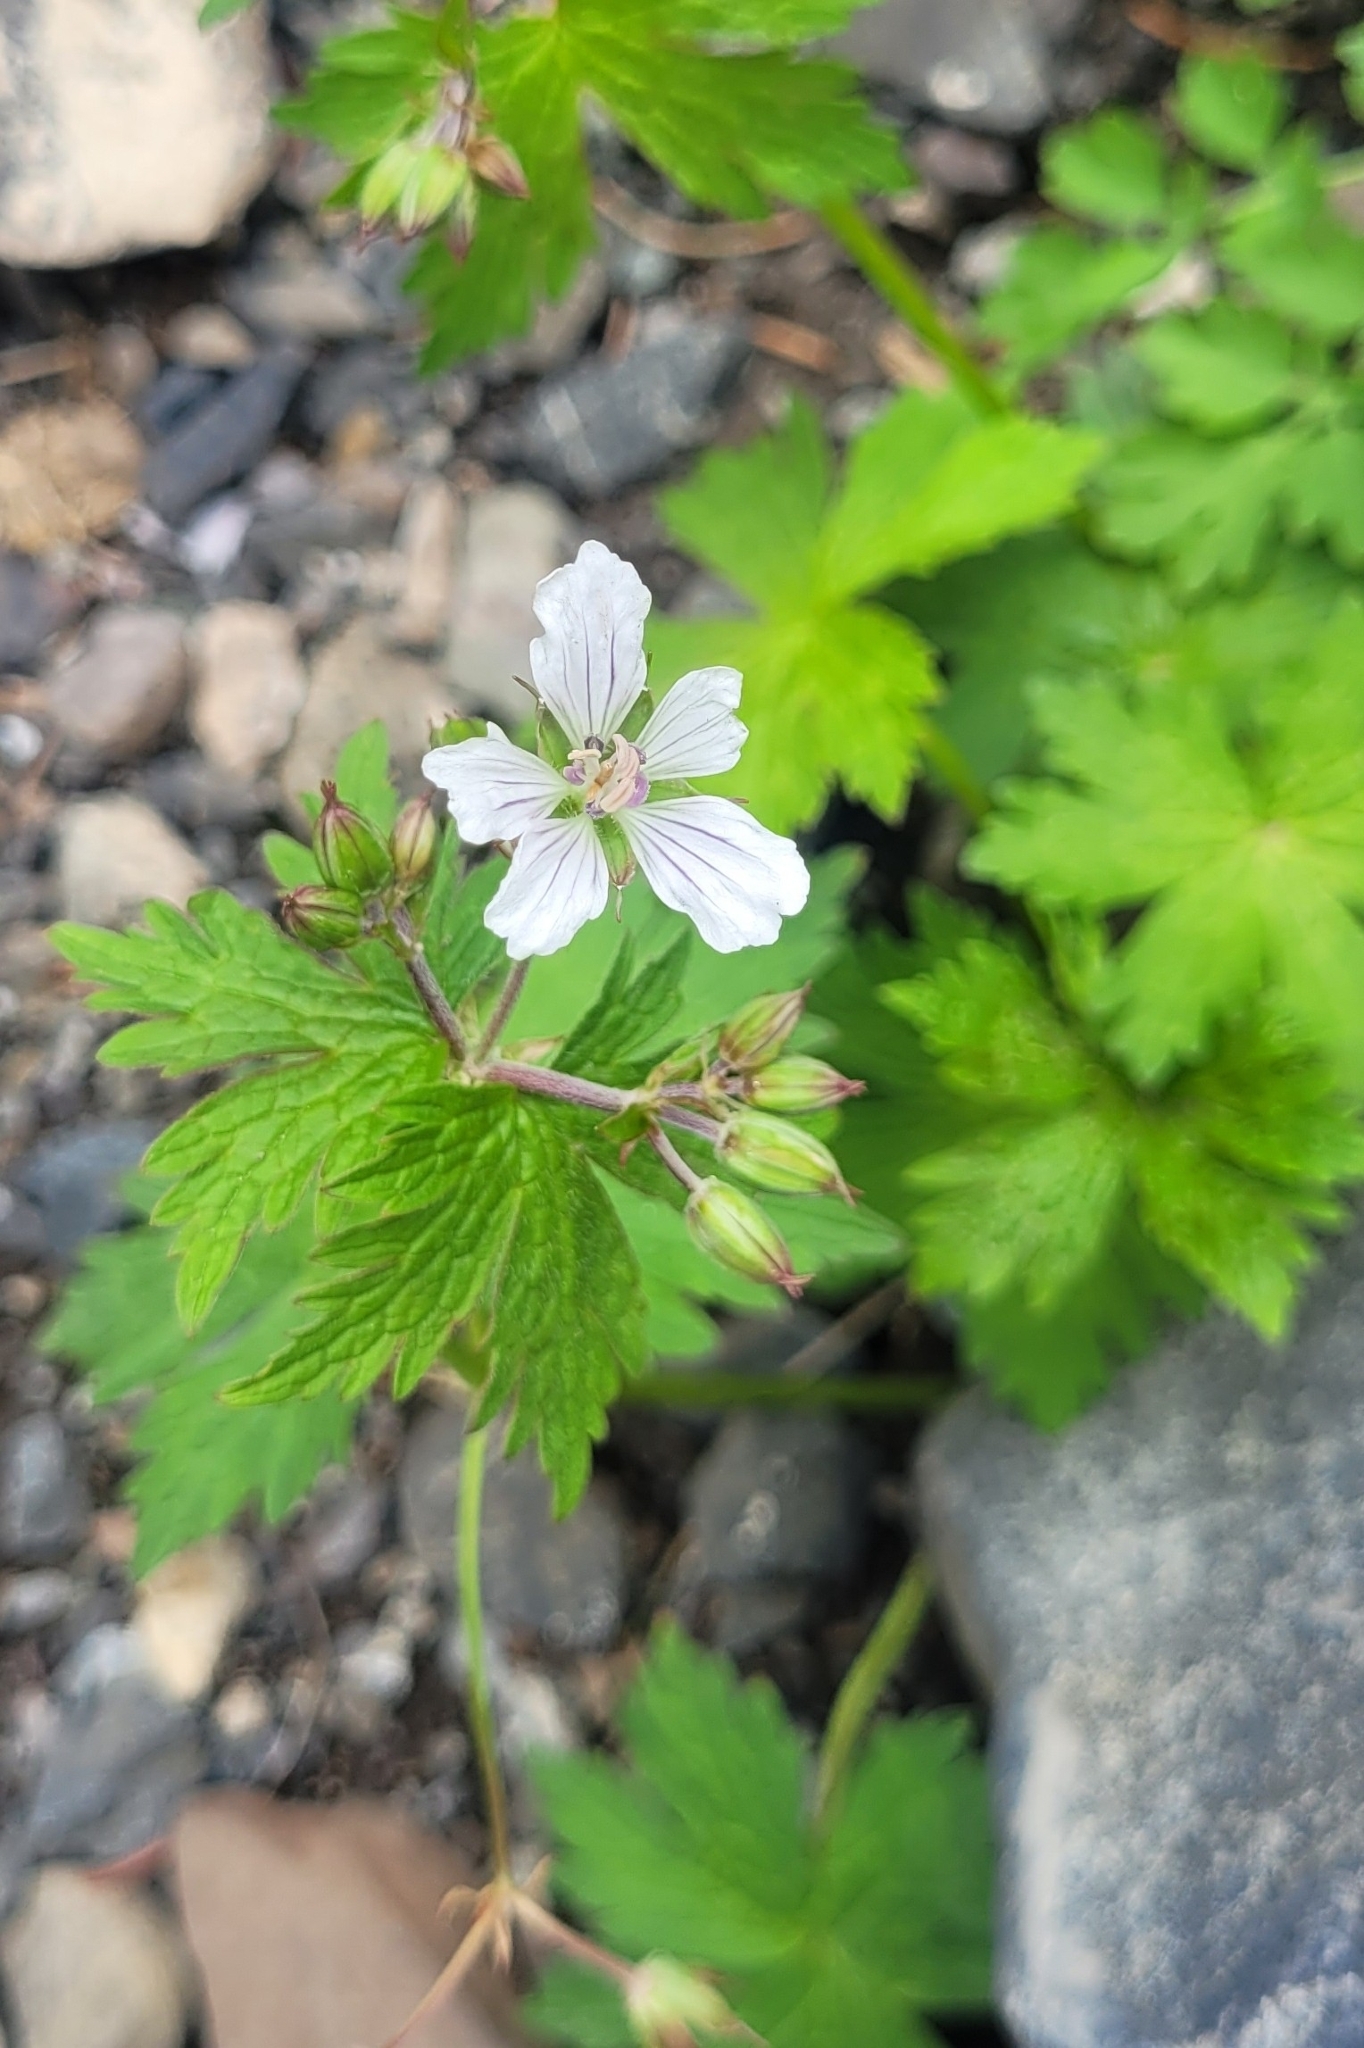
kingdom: Plantae
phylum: Tracheophyta
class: Magnoliopsida
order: Geraniales
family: Geraniaceae
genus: Geranium
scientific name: Geranium albiflorum
